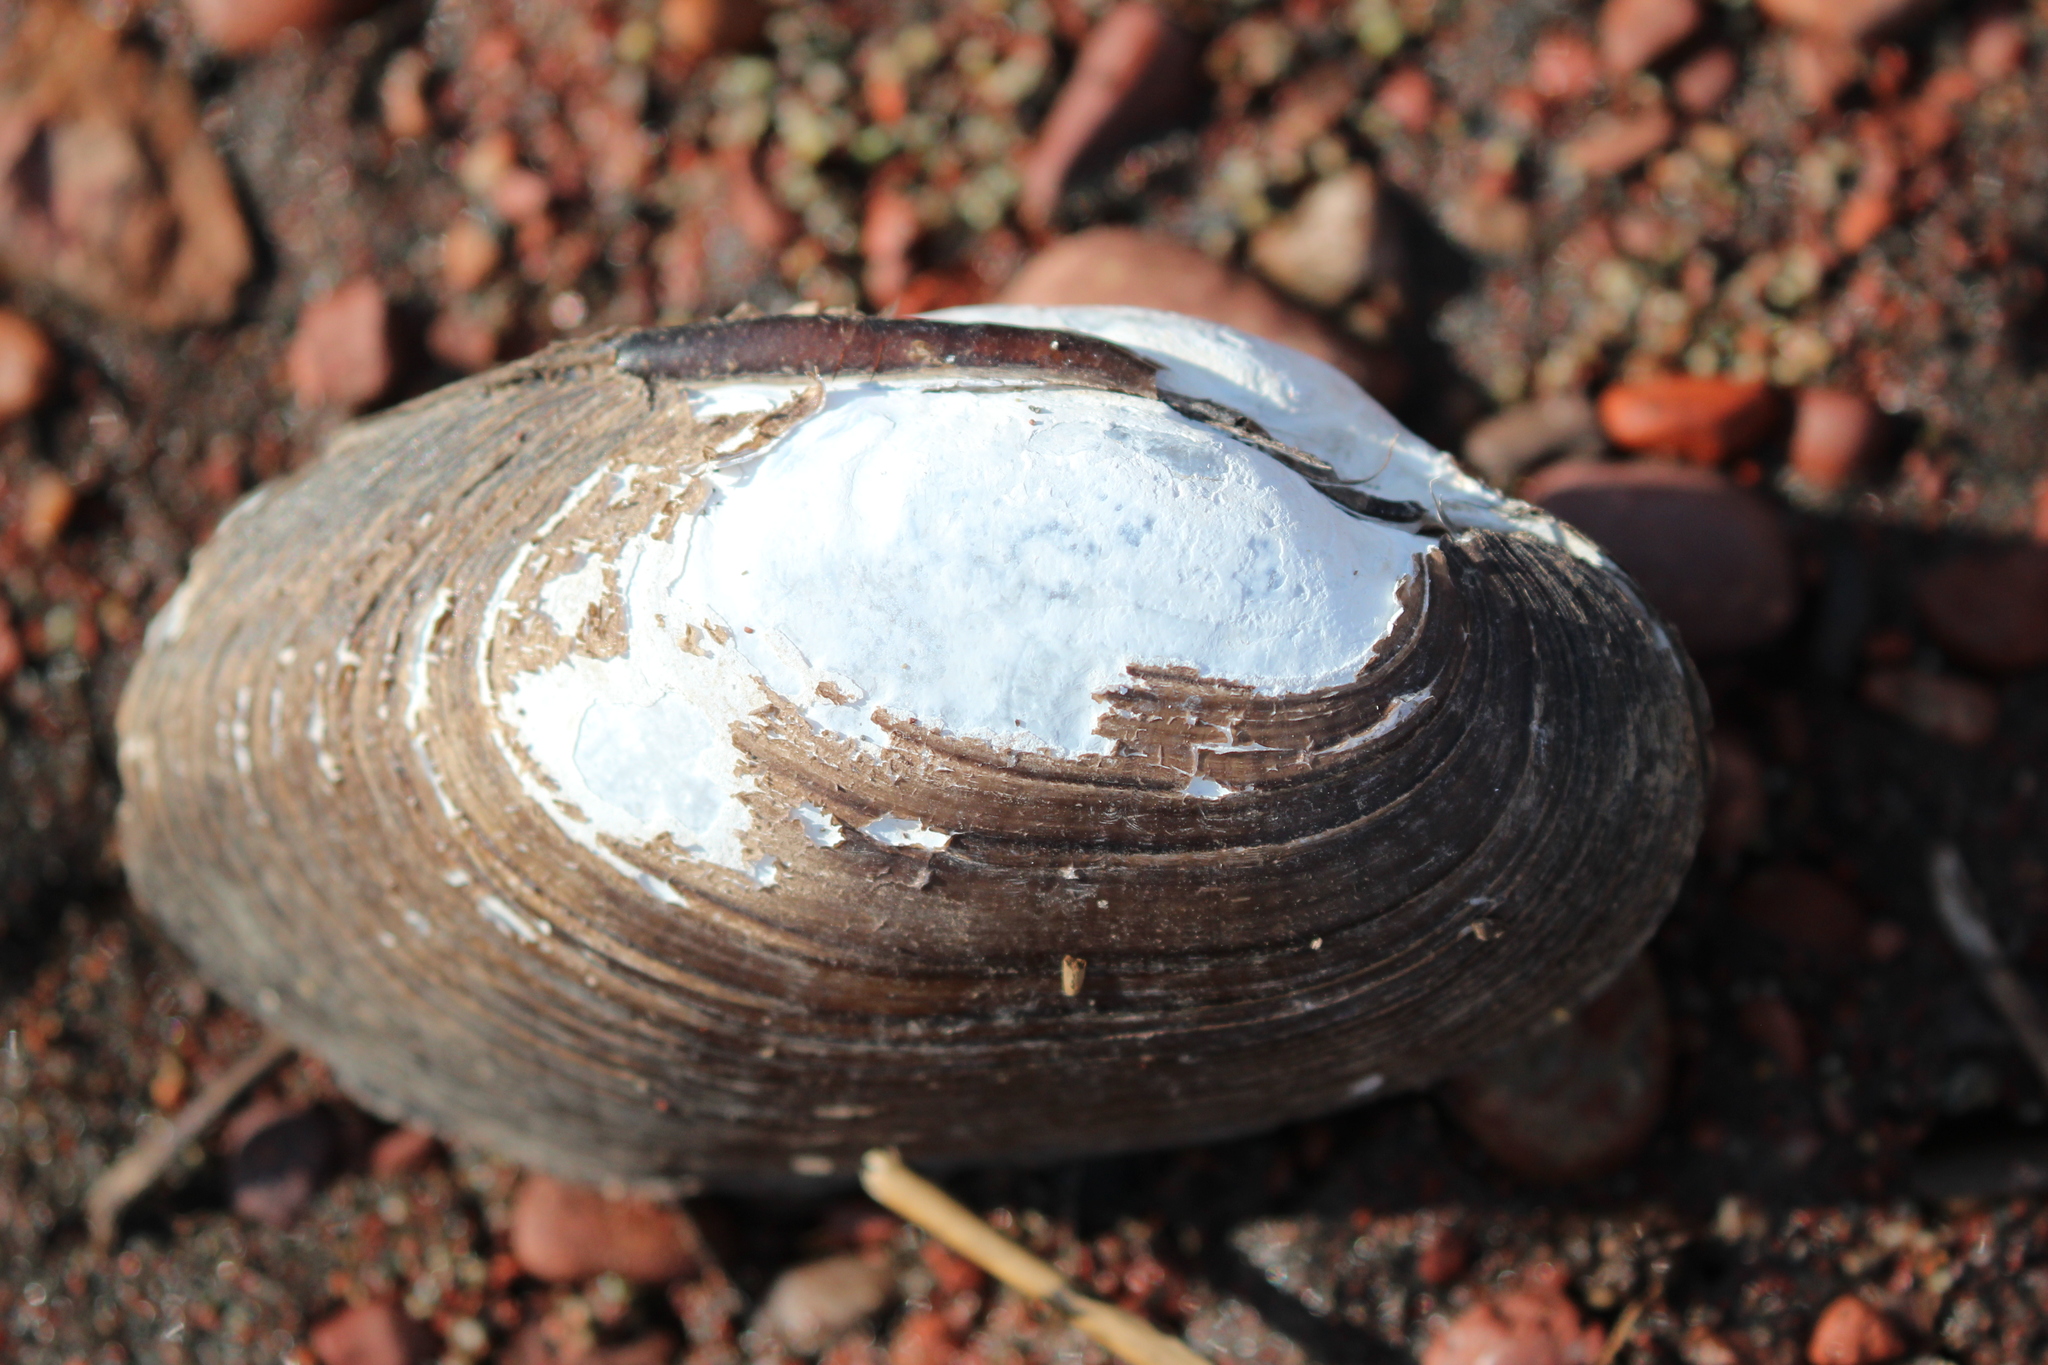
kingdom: Animalia
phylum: Mollusca
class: Bivalvia
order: Unionida
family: Unionidae
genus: Lampsilis
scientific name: Lampsilis siliquoidea
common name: Fatmucket
